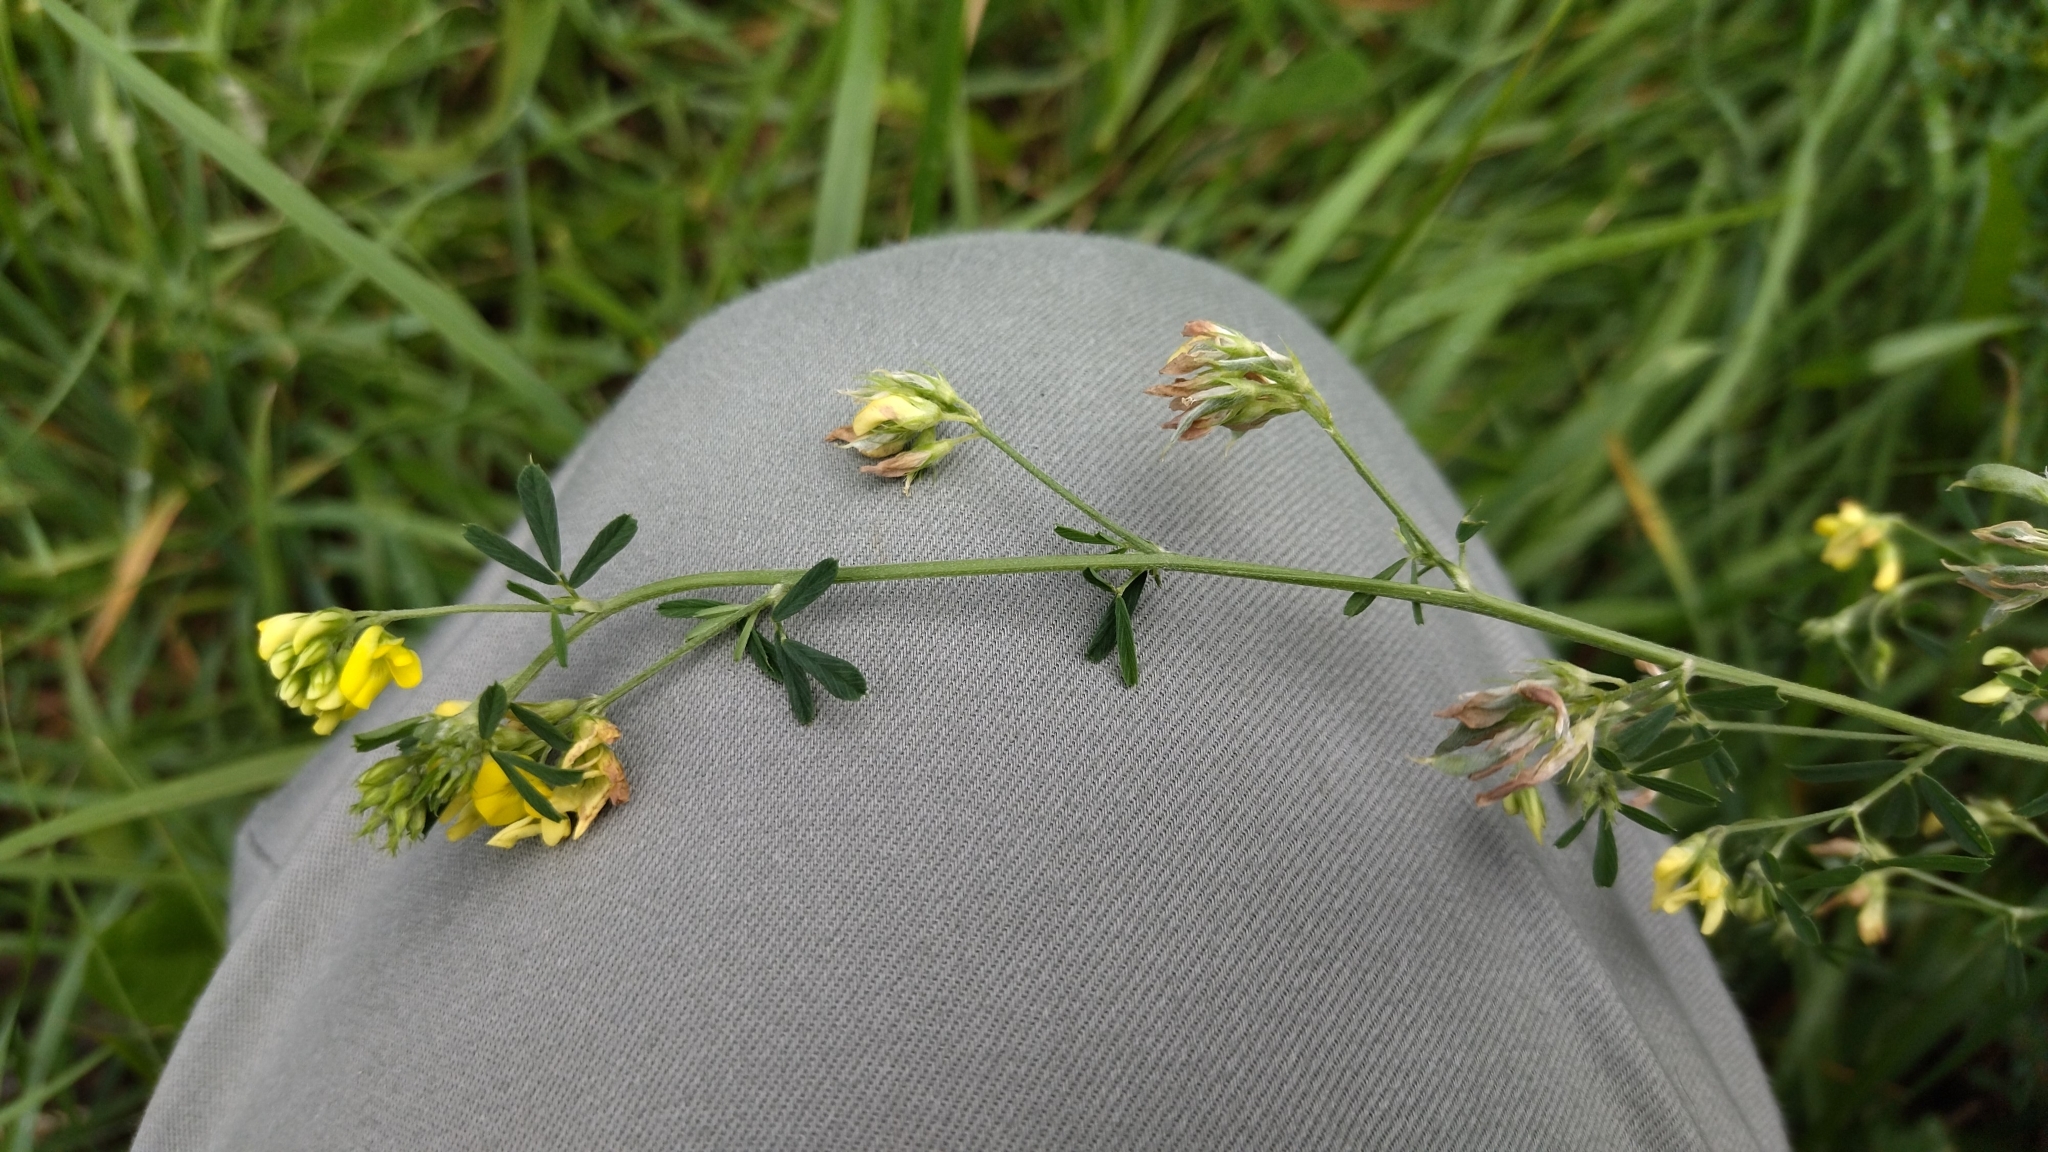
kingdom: Plantae
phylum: Tracheophyta
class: Magnoliopsida
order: Fabales
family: Fabaceae
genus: Medicago
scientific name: Medicago falcata
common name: Sickle medick
